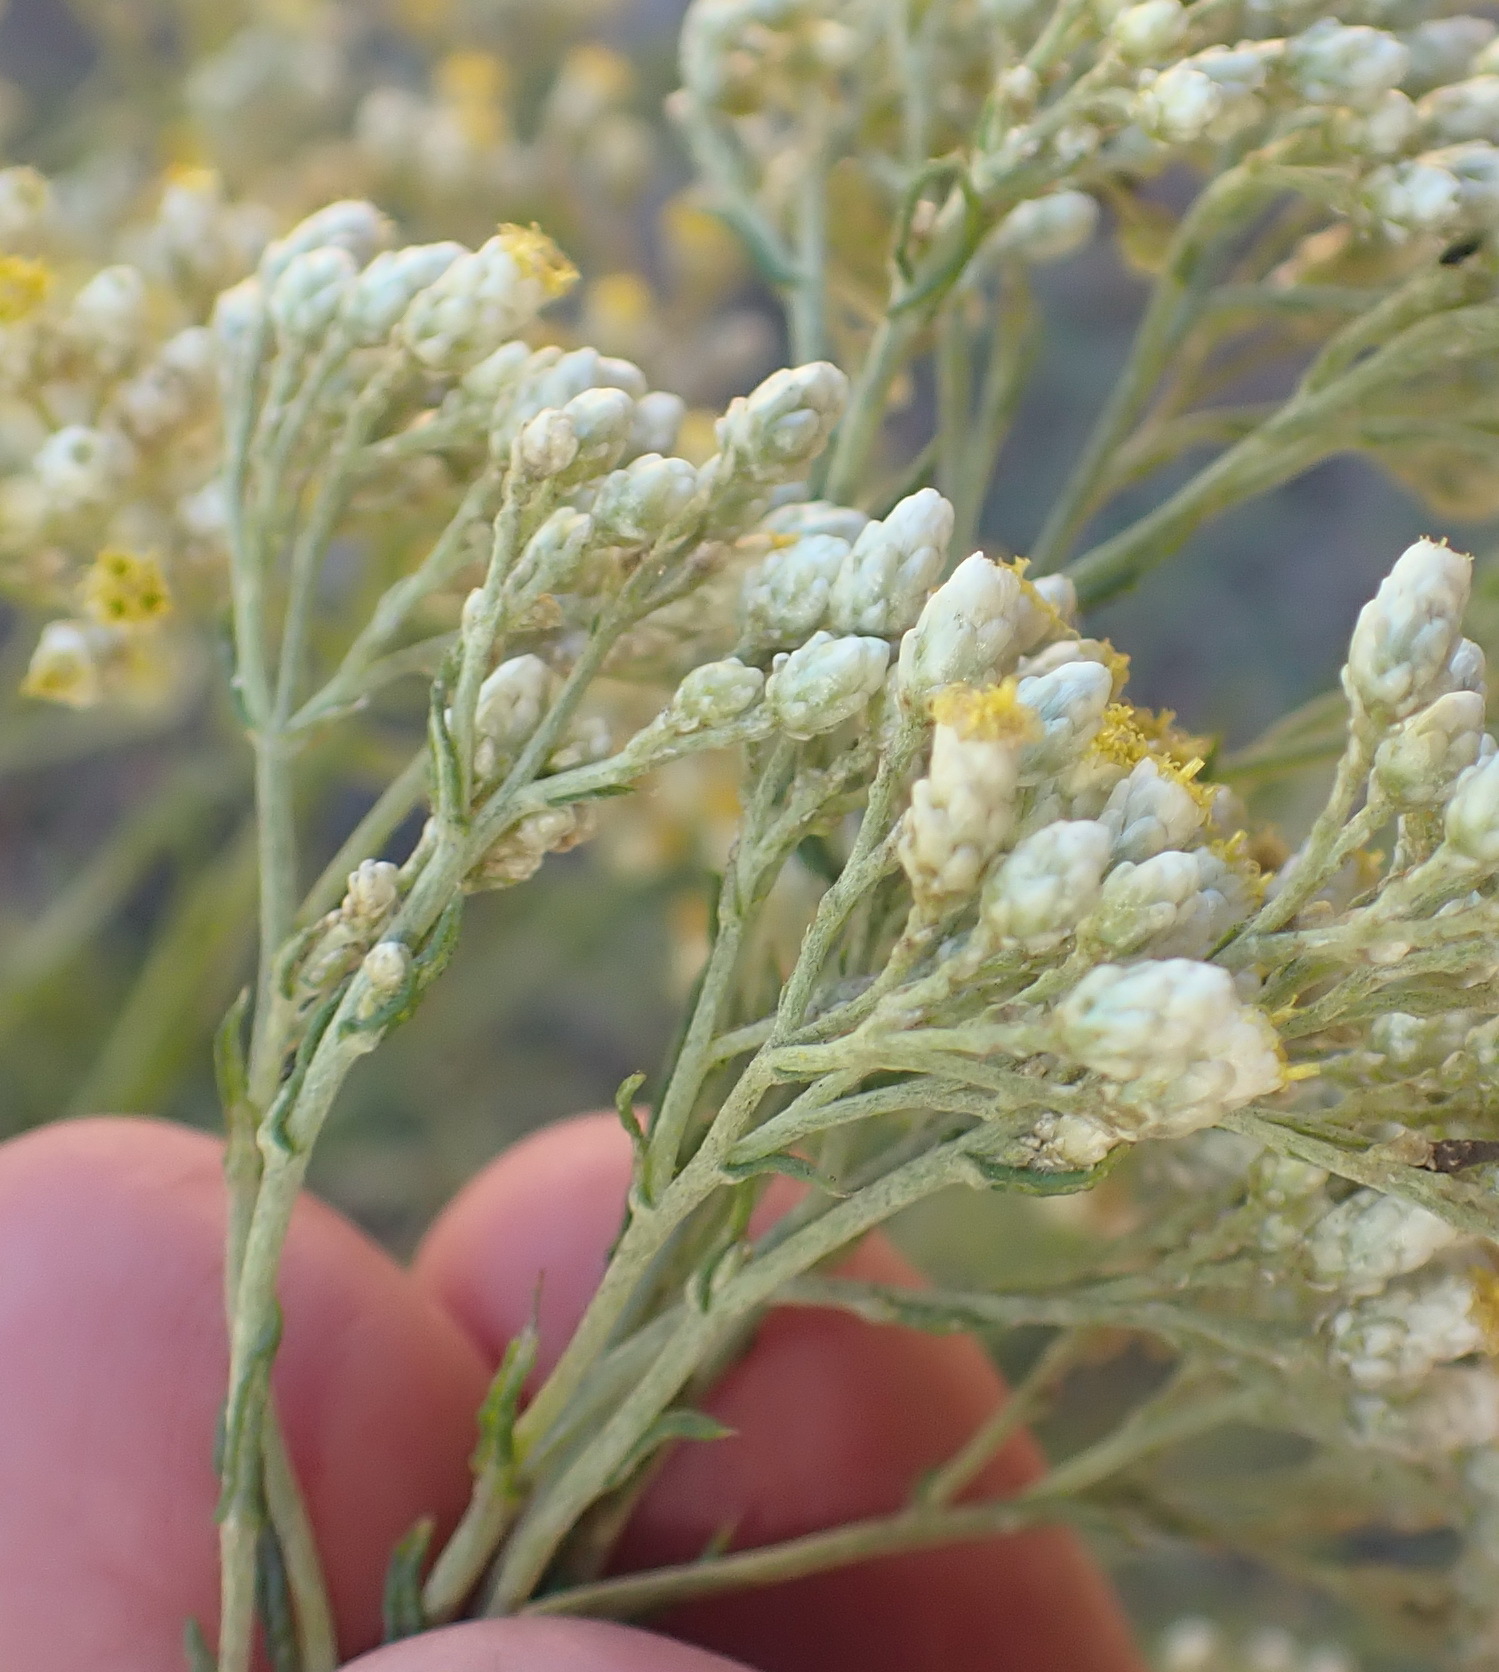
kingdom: Plantae
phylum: Tracheophyta
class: Magnoliopsida
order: Asterales
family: Asteraceae
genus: Helichrysum
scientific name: Helichrysum rugulosum
